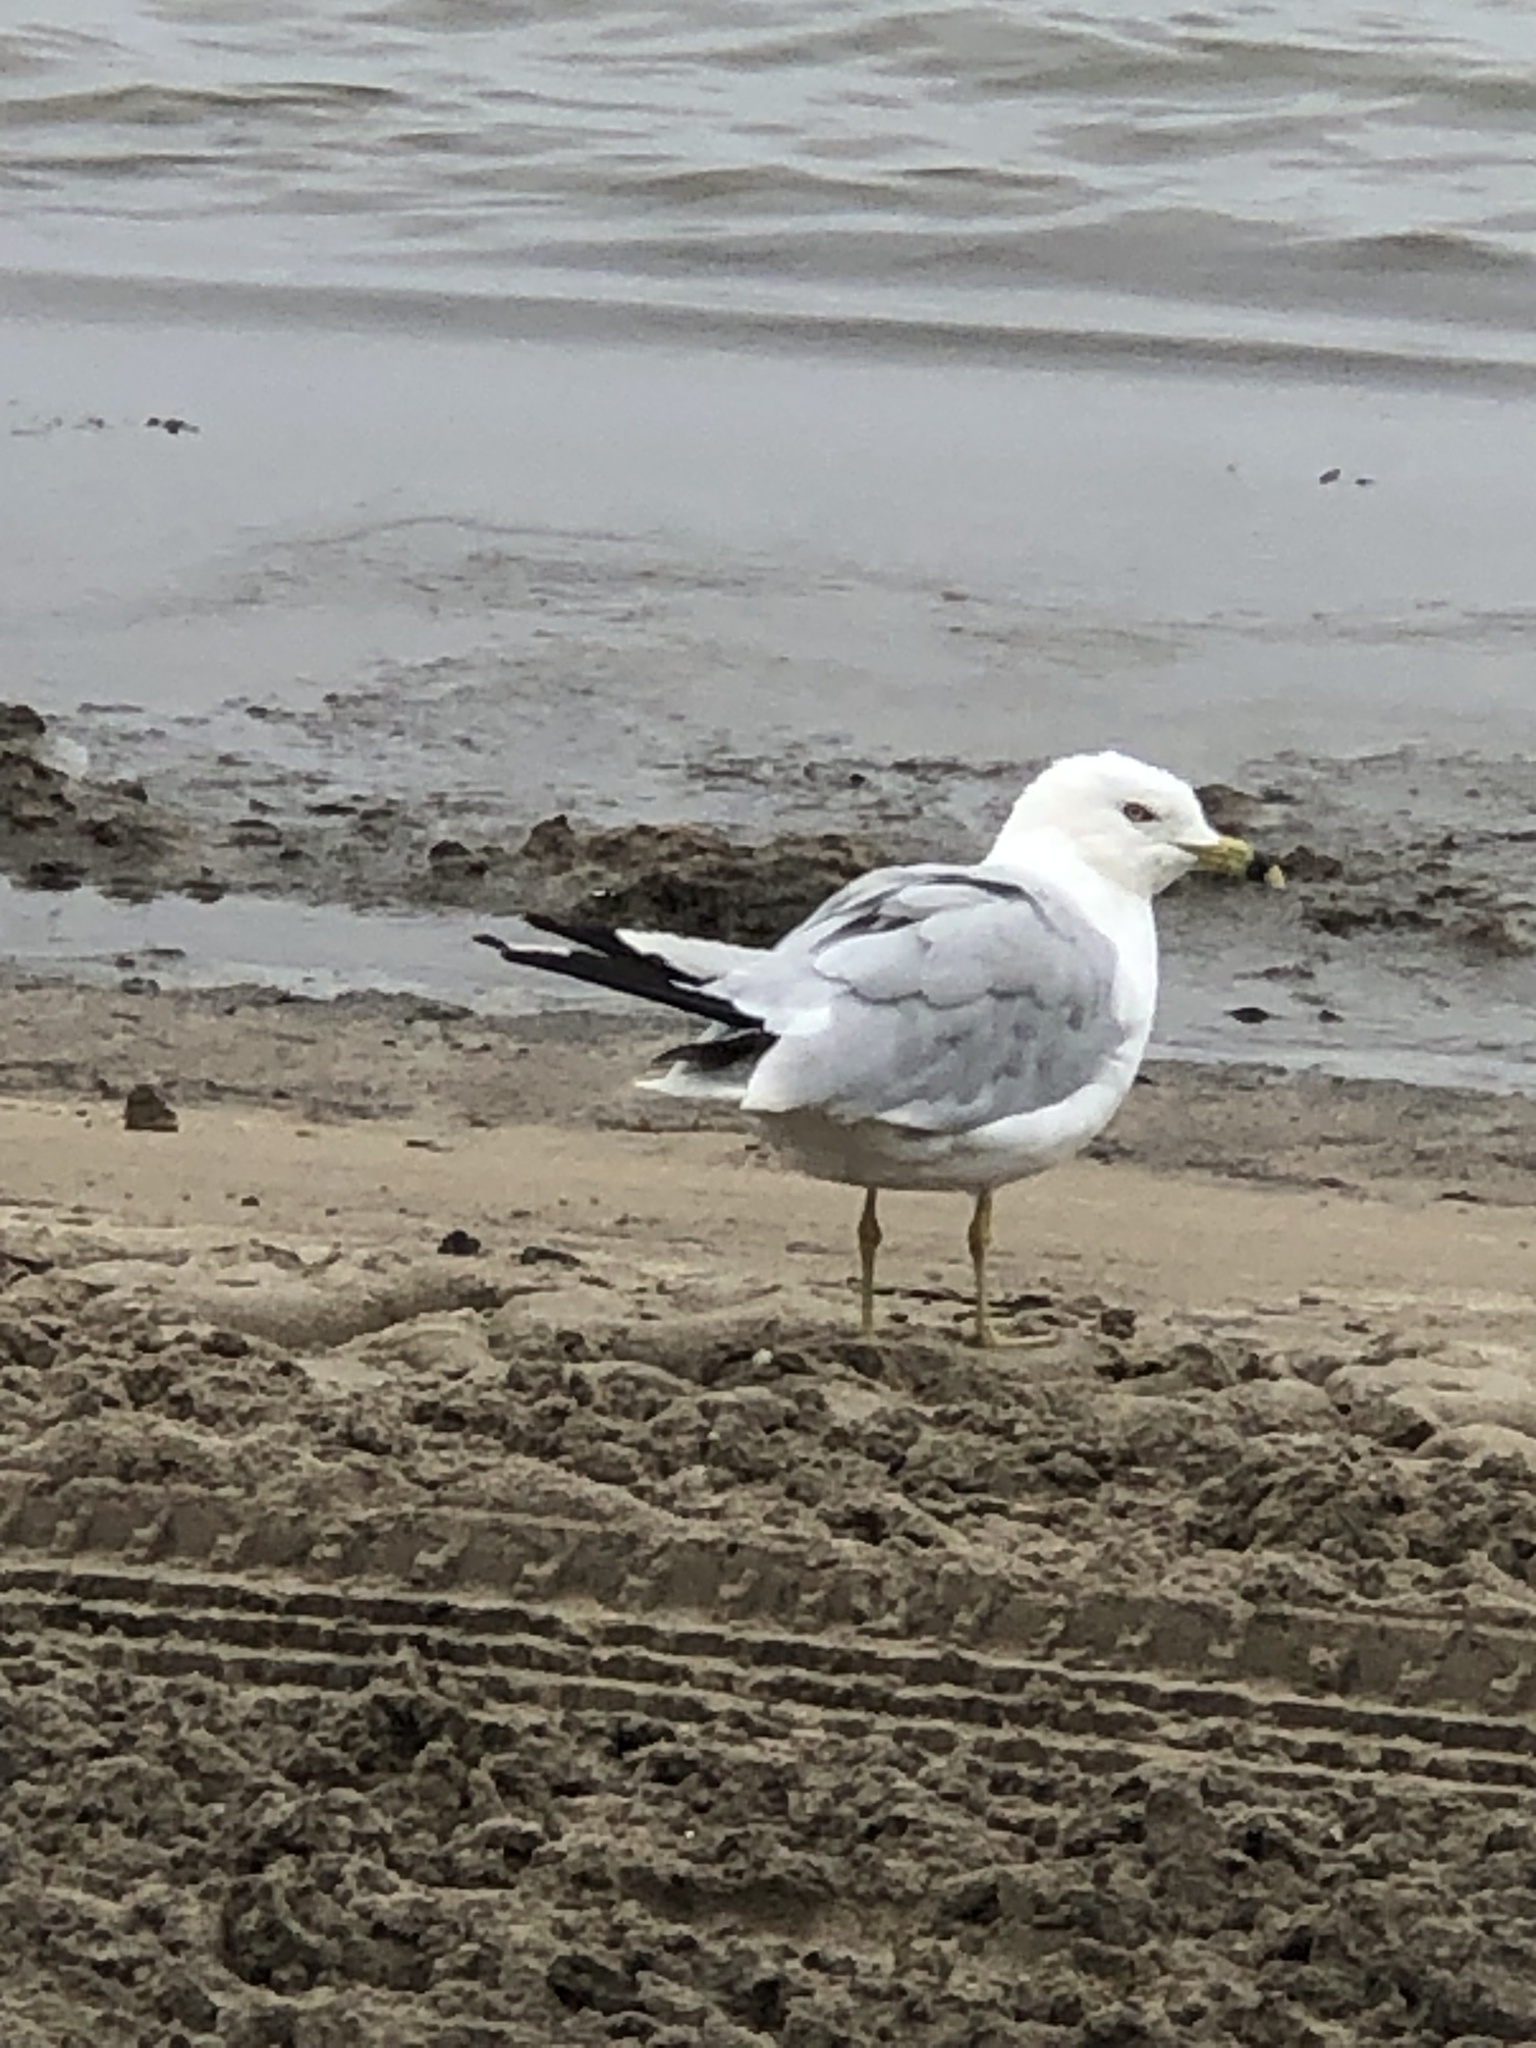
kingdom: Animalia
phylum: Chordata
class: Aves
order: Charadriiformes
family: Laridae
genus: Larus
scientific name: Larus delawarensis
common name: Ring-billed gull
